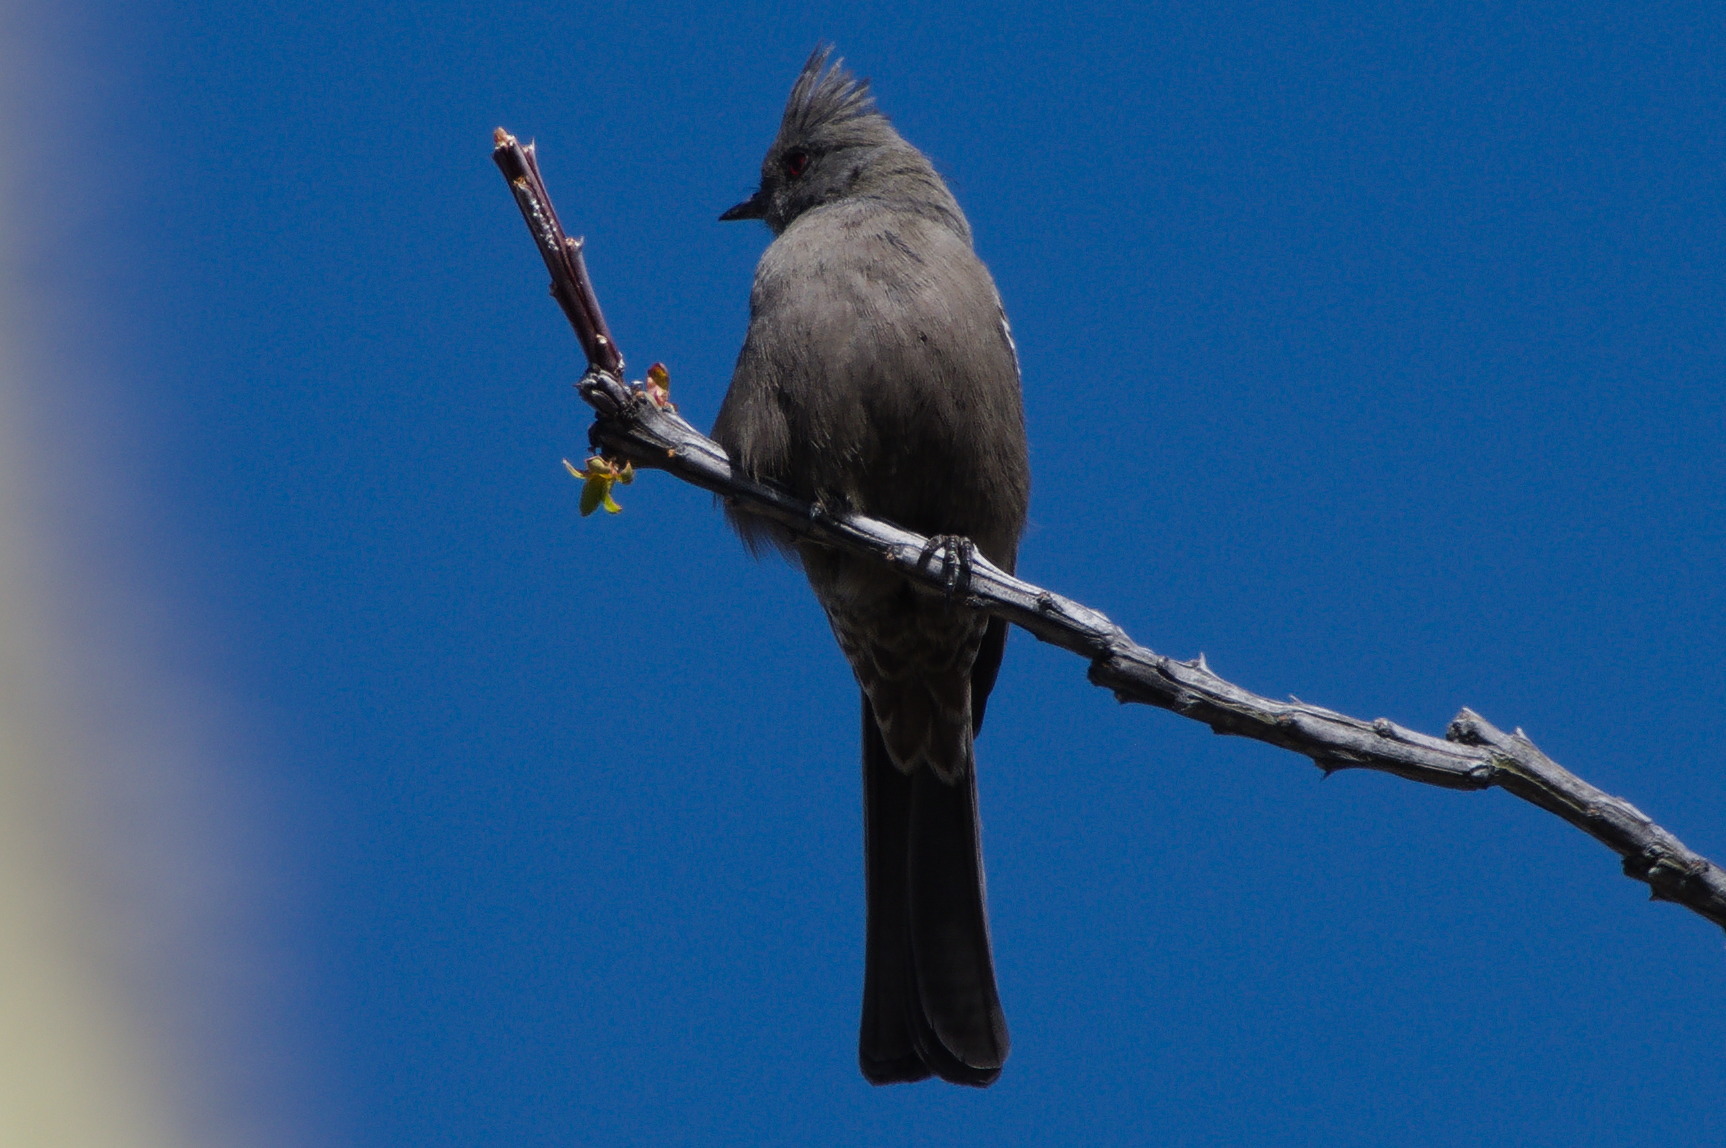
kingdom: Animalia
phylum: Chordata
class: Aves
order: Passeriformes
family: Ptilogonatidae
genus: Phainopepla
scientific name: Phainopepla nitens
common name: Phainopepla
